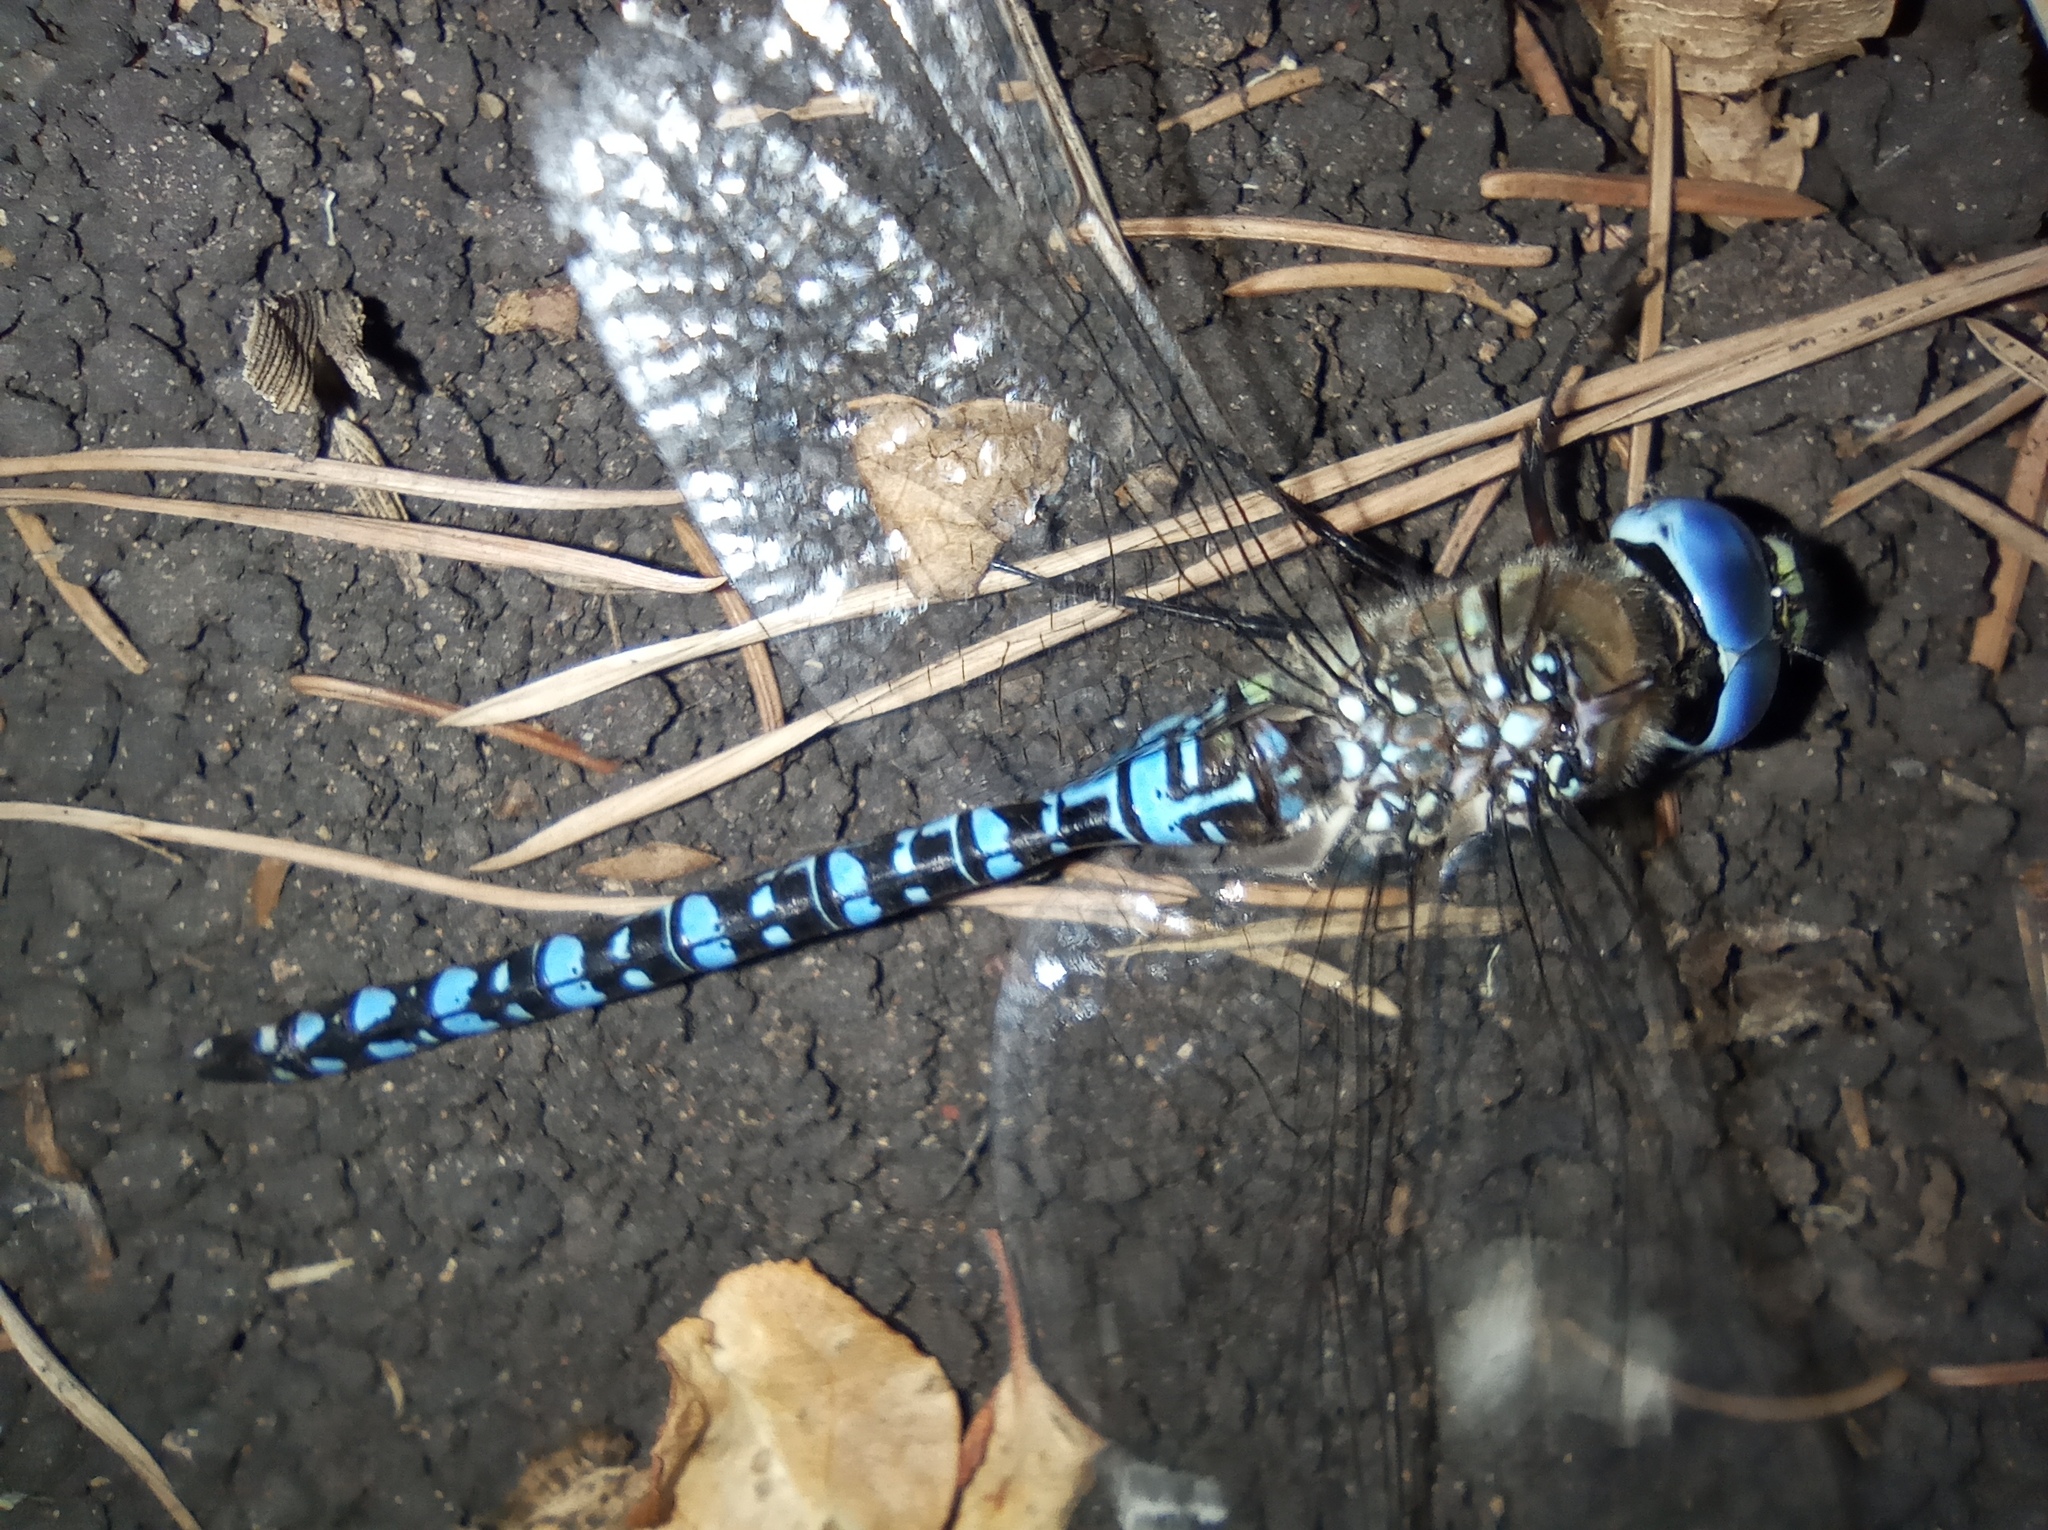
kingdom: Animalia
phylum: Arthropoda
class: Insecta
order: Odonata
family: Aeshnidae
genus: Aeshna
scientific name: Aeshna soneharai
